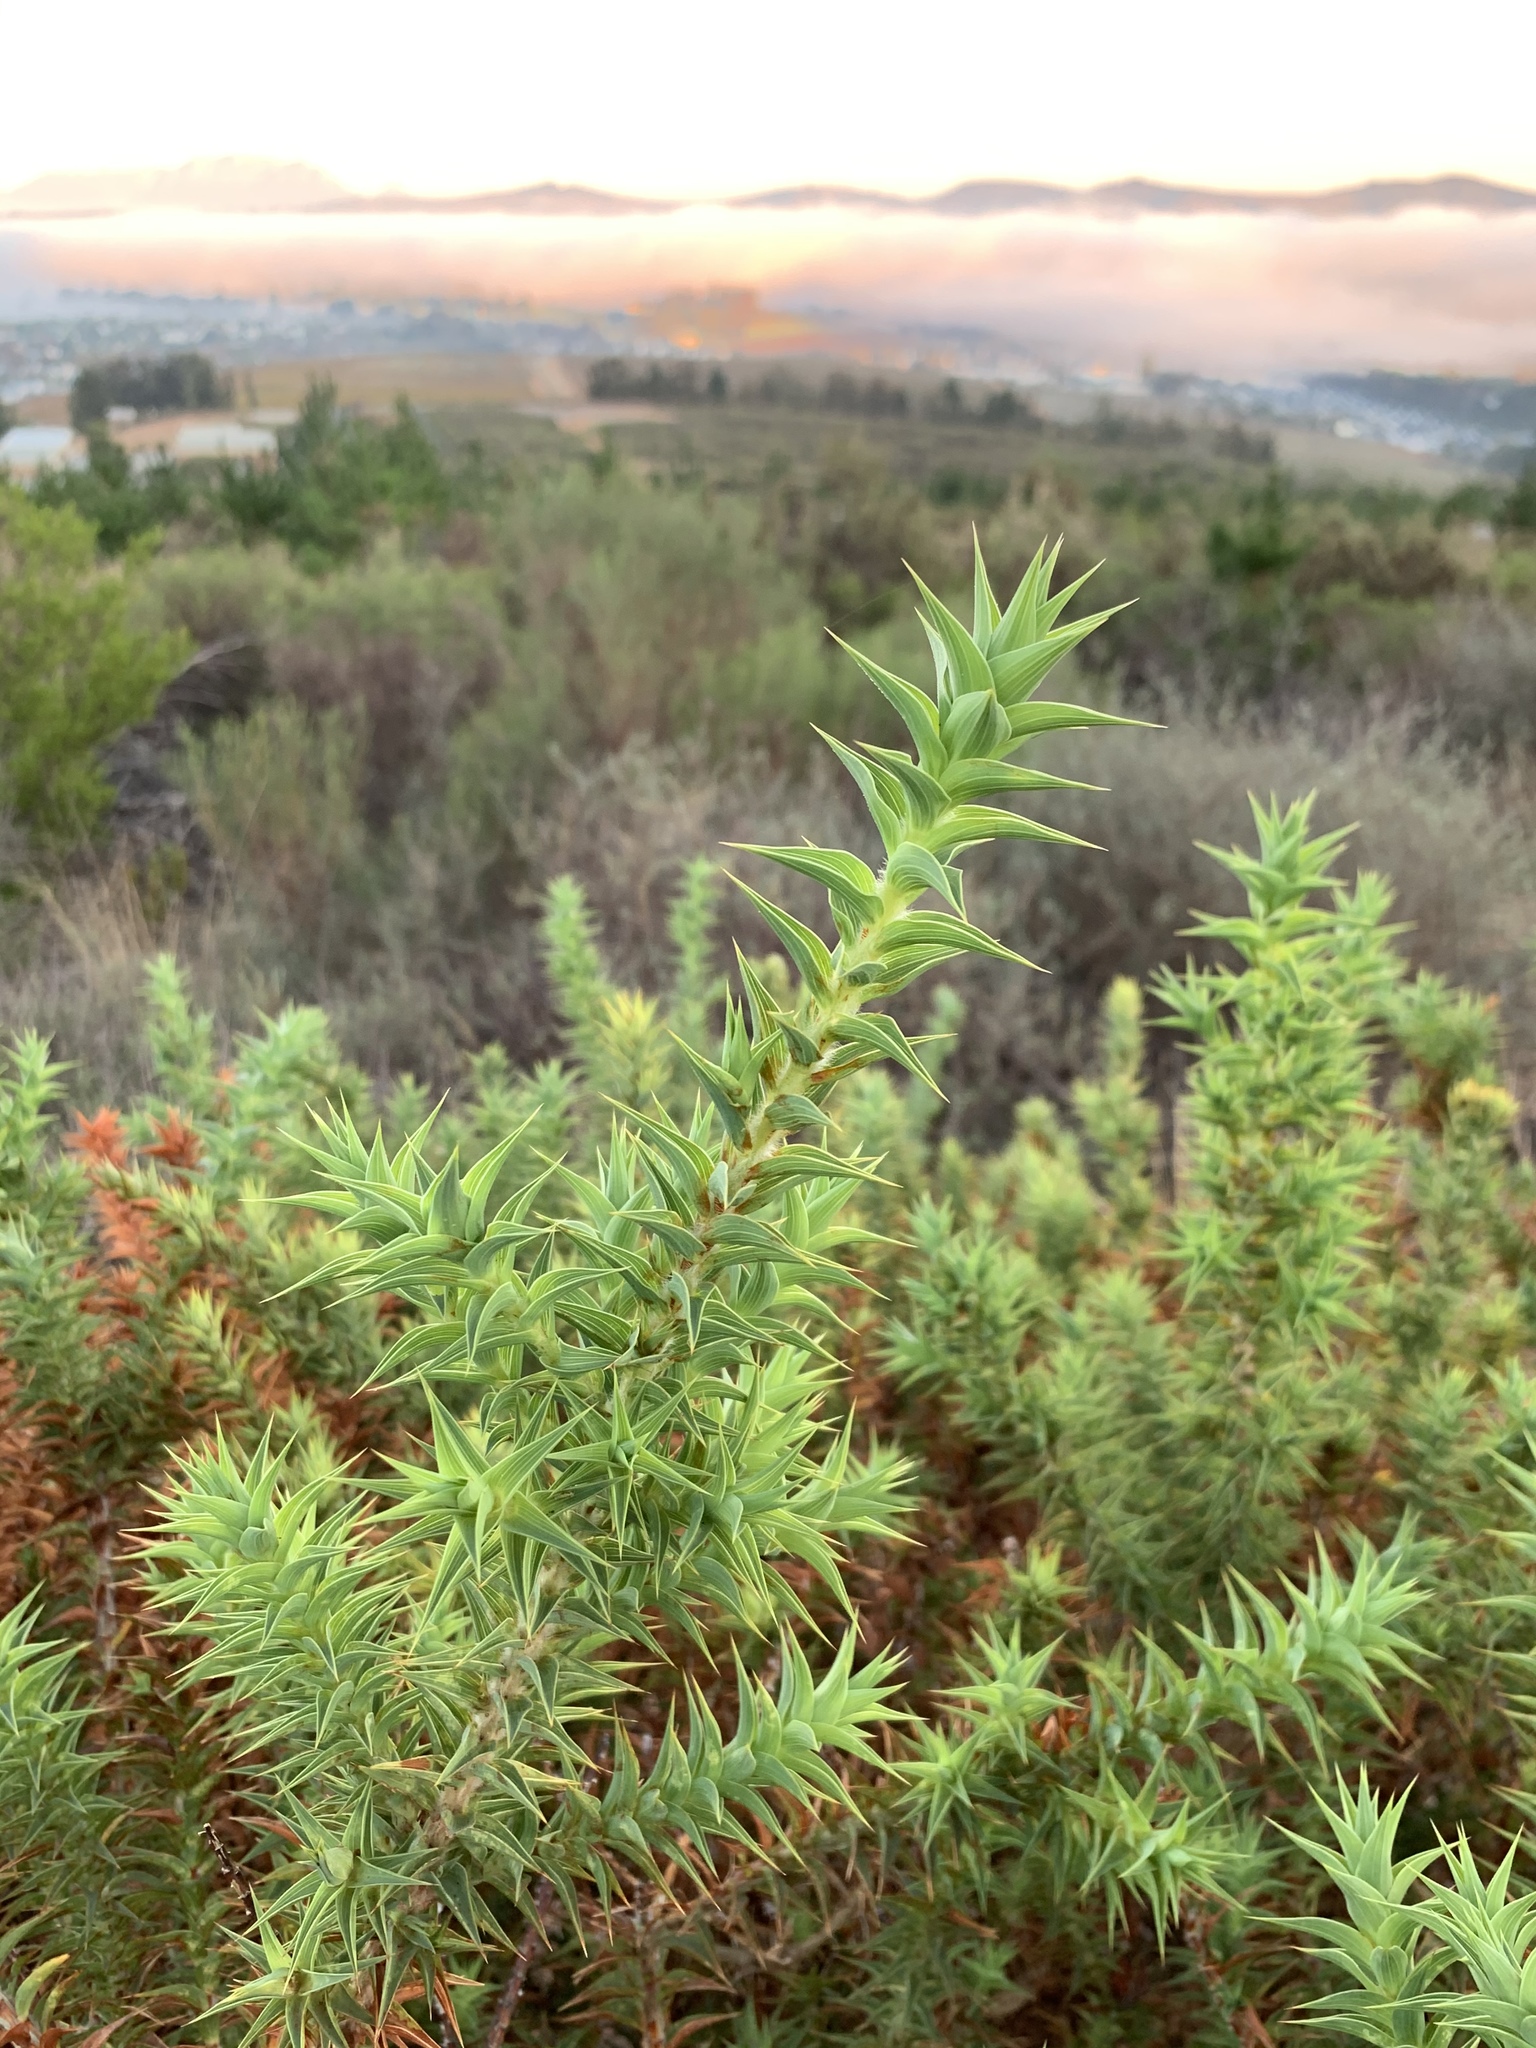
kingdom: Plantae
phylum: Tracheophyta
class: Magnoliopsida
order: Fabales
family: Fabaceae
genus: Aspalathus
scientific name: Aspalathus cordata
